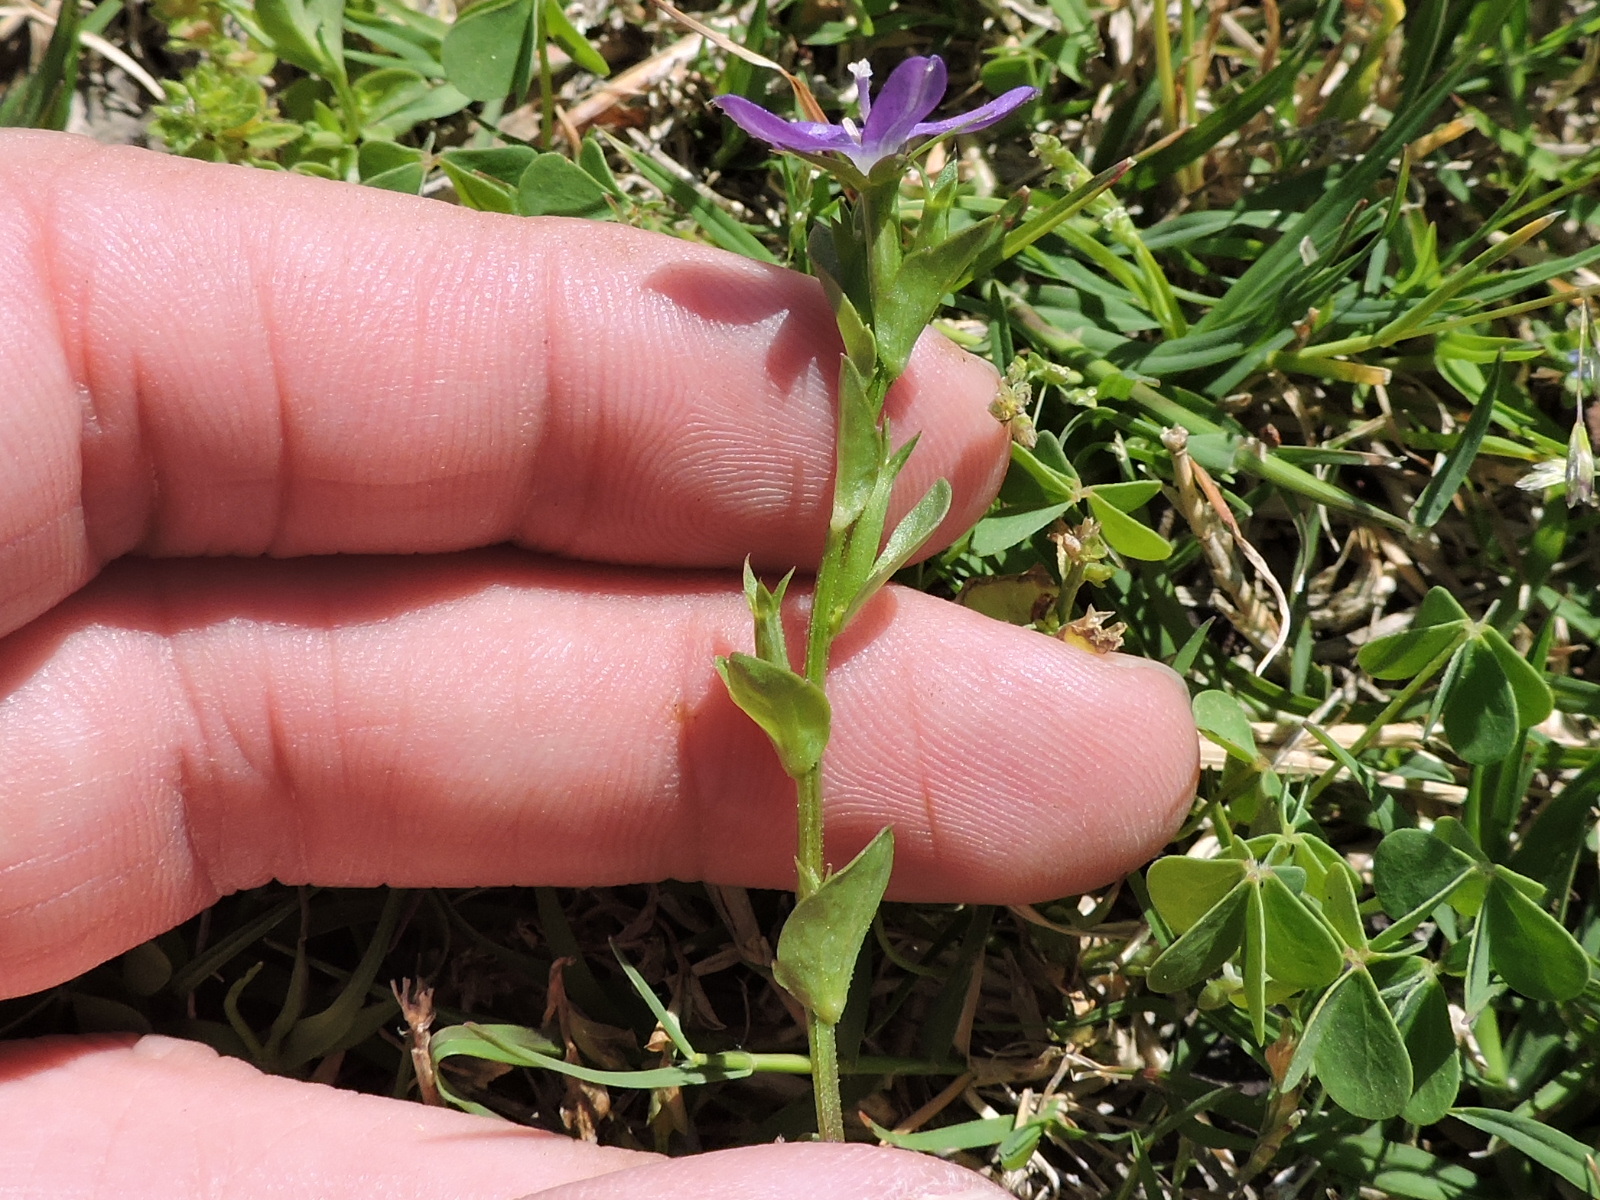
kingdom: Plantae
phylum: Tracheophyta
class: Magnoliopsida
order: Asterales
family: Campanulaceae
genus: Triodanis
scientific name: Triodanis perfoliata
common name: Clasping venus' looking-glass
